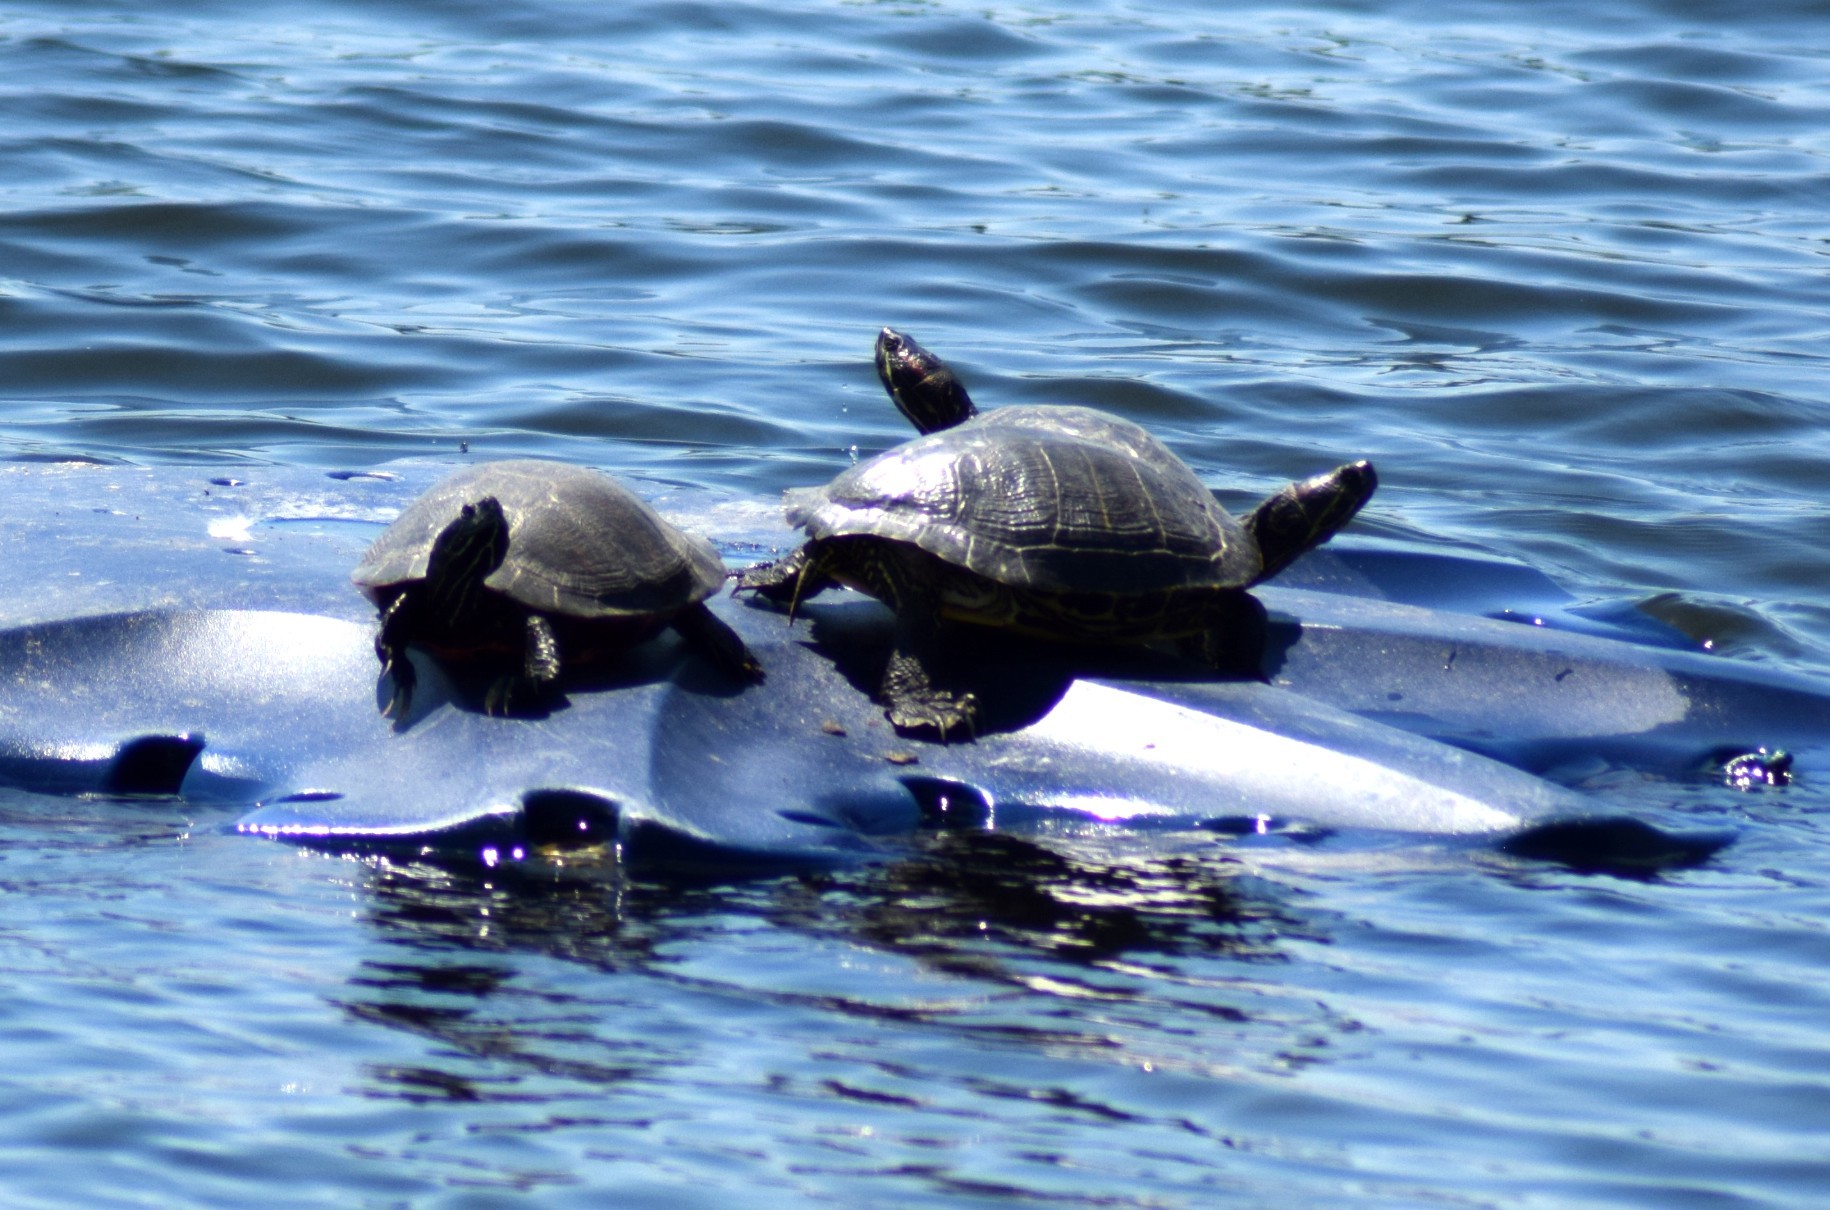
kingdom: Animalia
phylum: Chordata
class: Testudines
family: Emydidae
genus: Pseudemys
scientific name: Pseudemys rubriventris
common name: American red-bellied turtle
